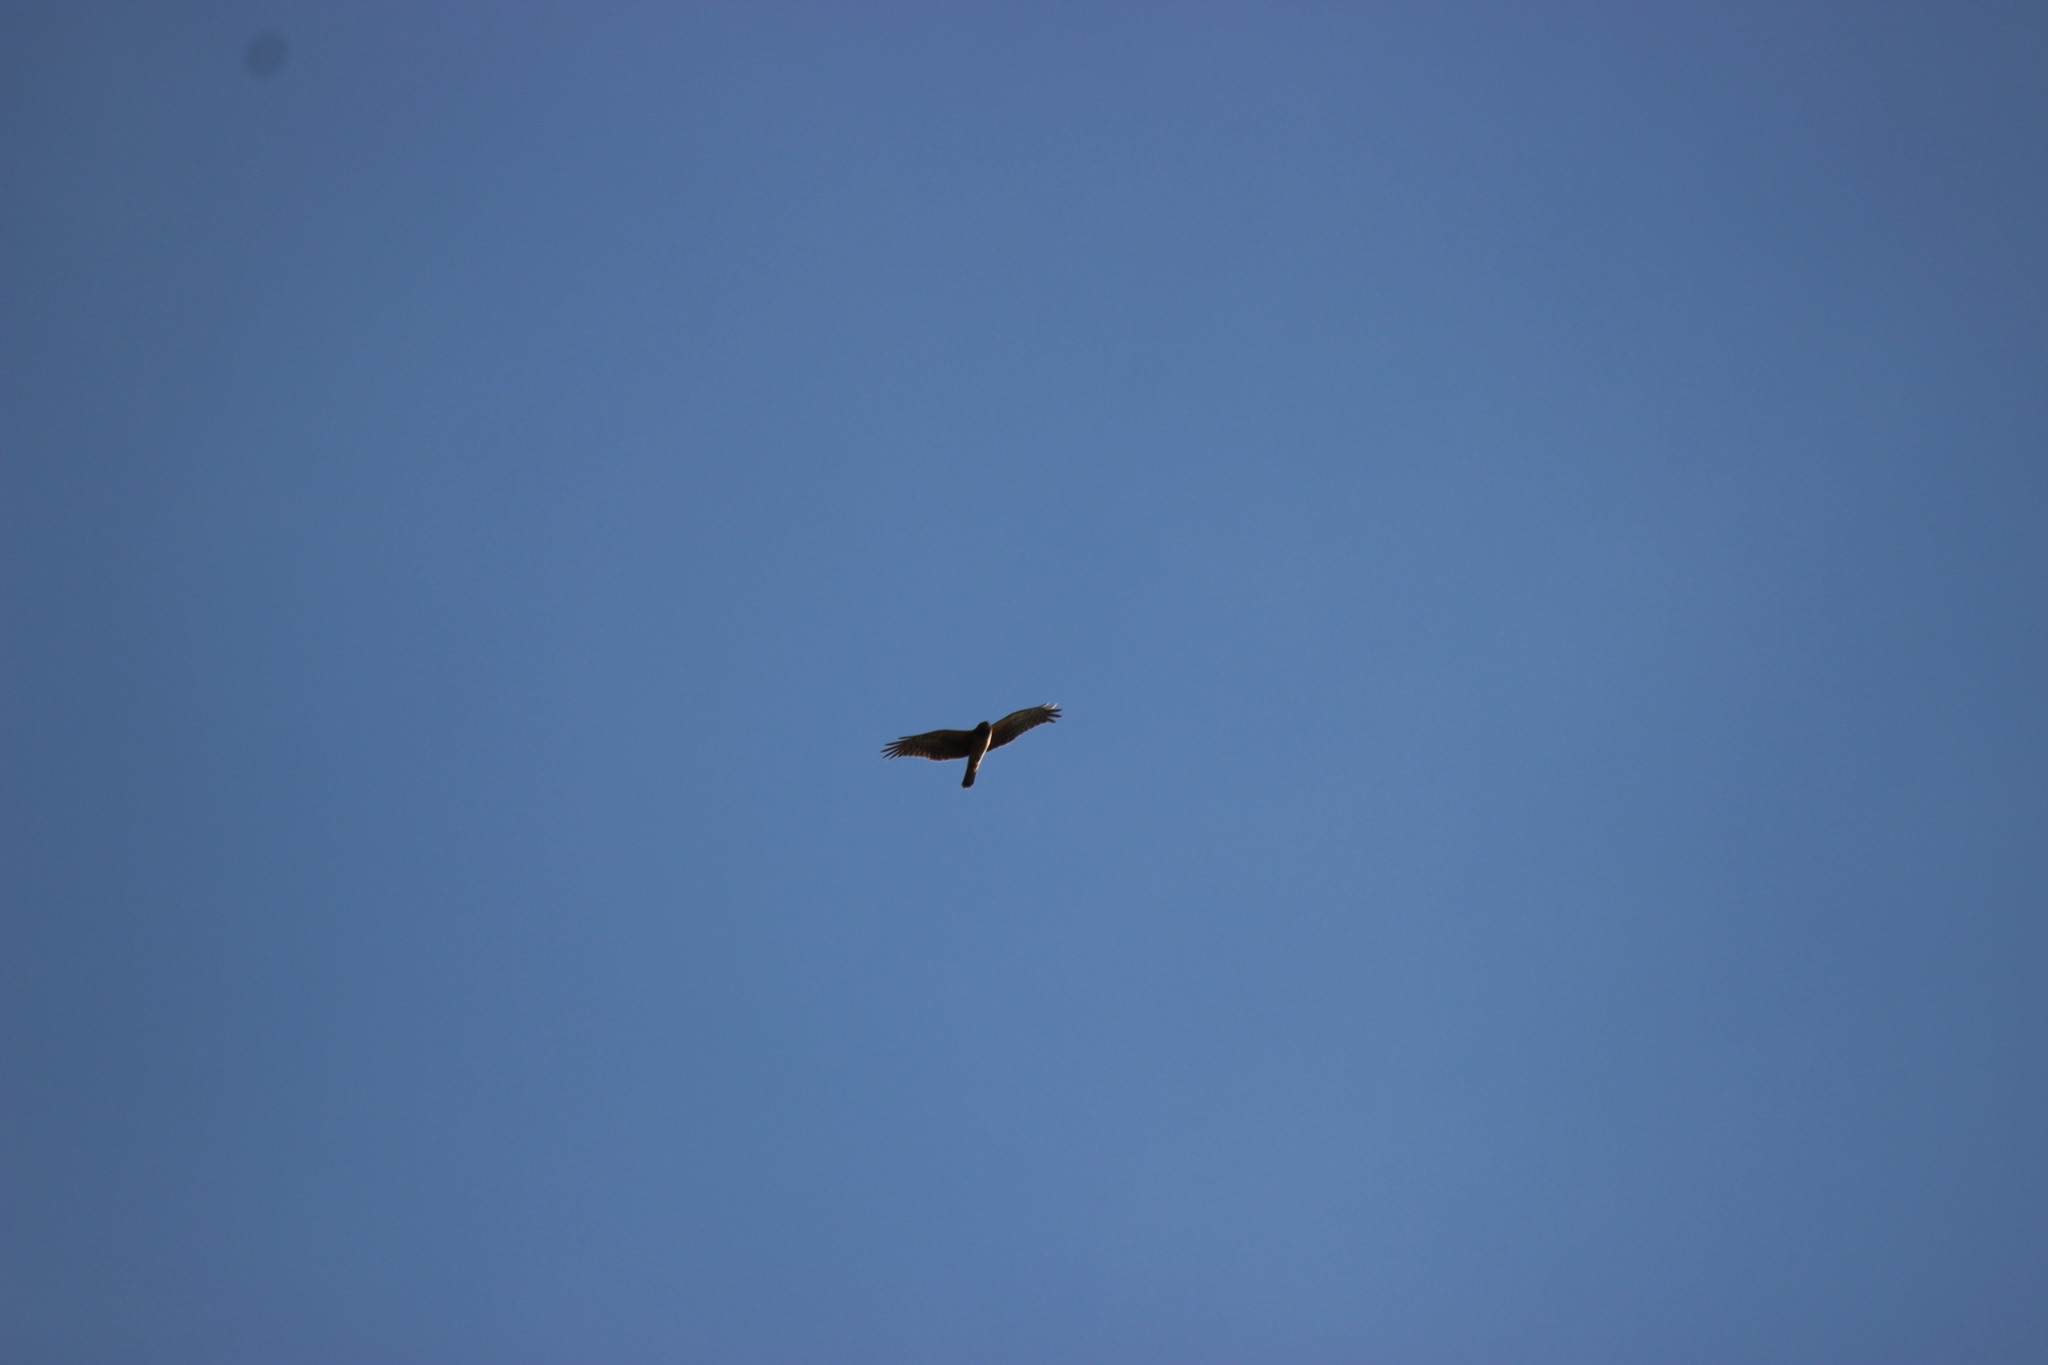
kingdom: Animalia
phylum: Chordata
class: Aves
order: Accipitriformes
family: Accipitridae
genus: Circus
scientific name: Circus cyaneus
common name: Hen harrier
